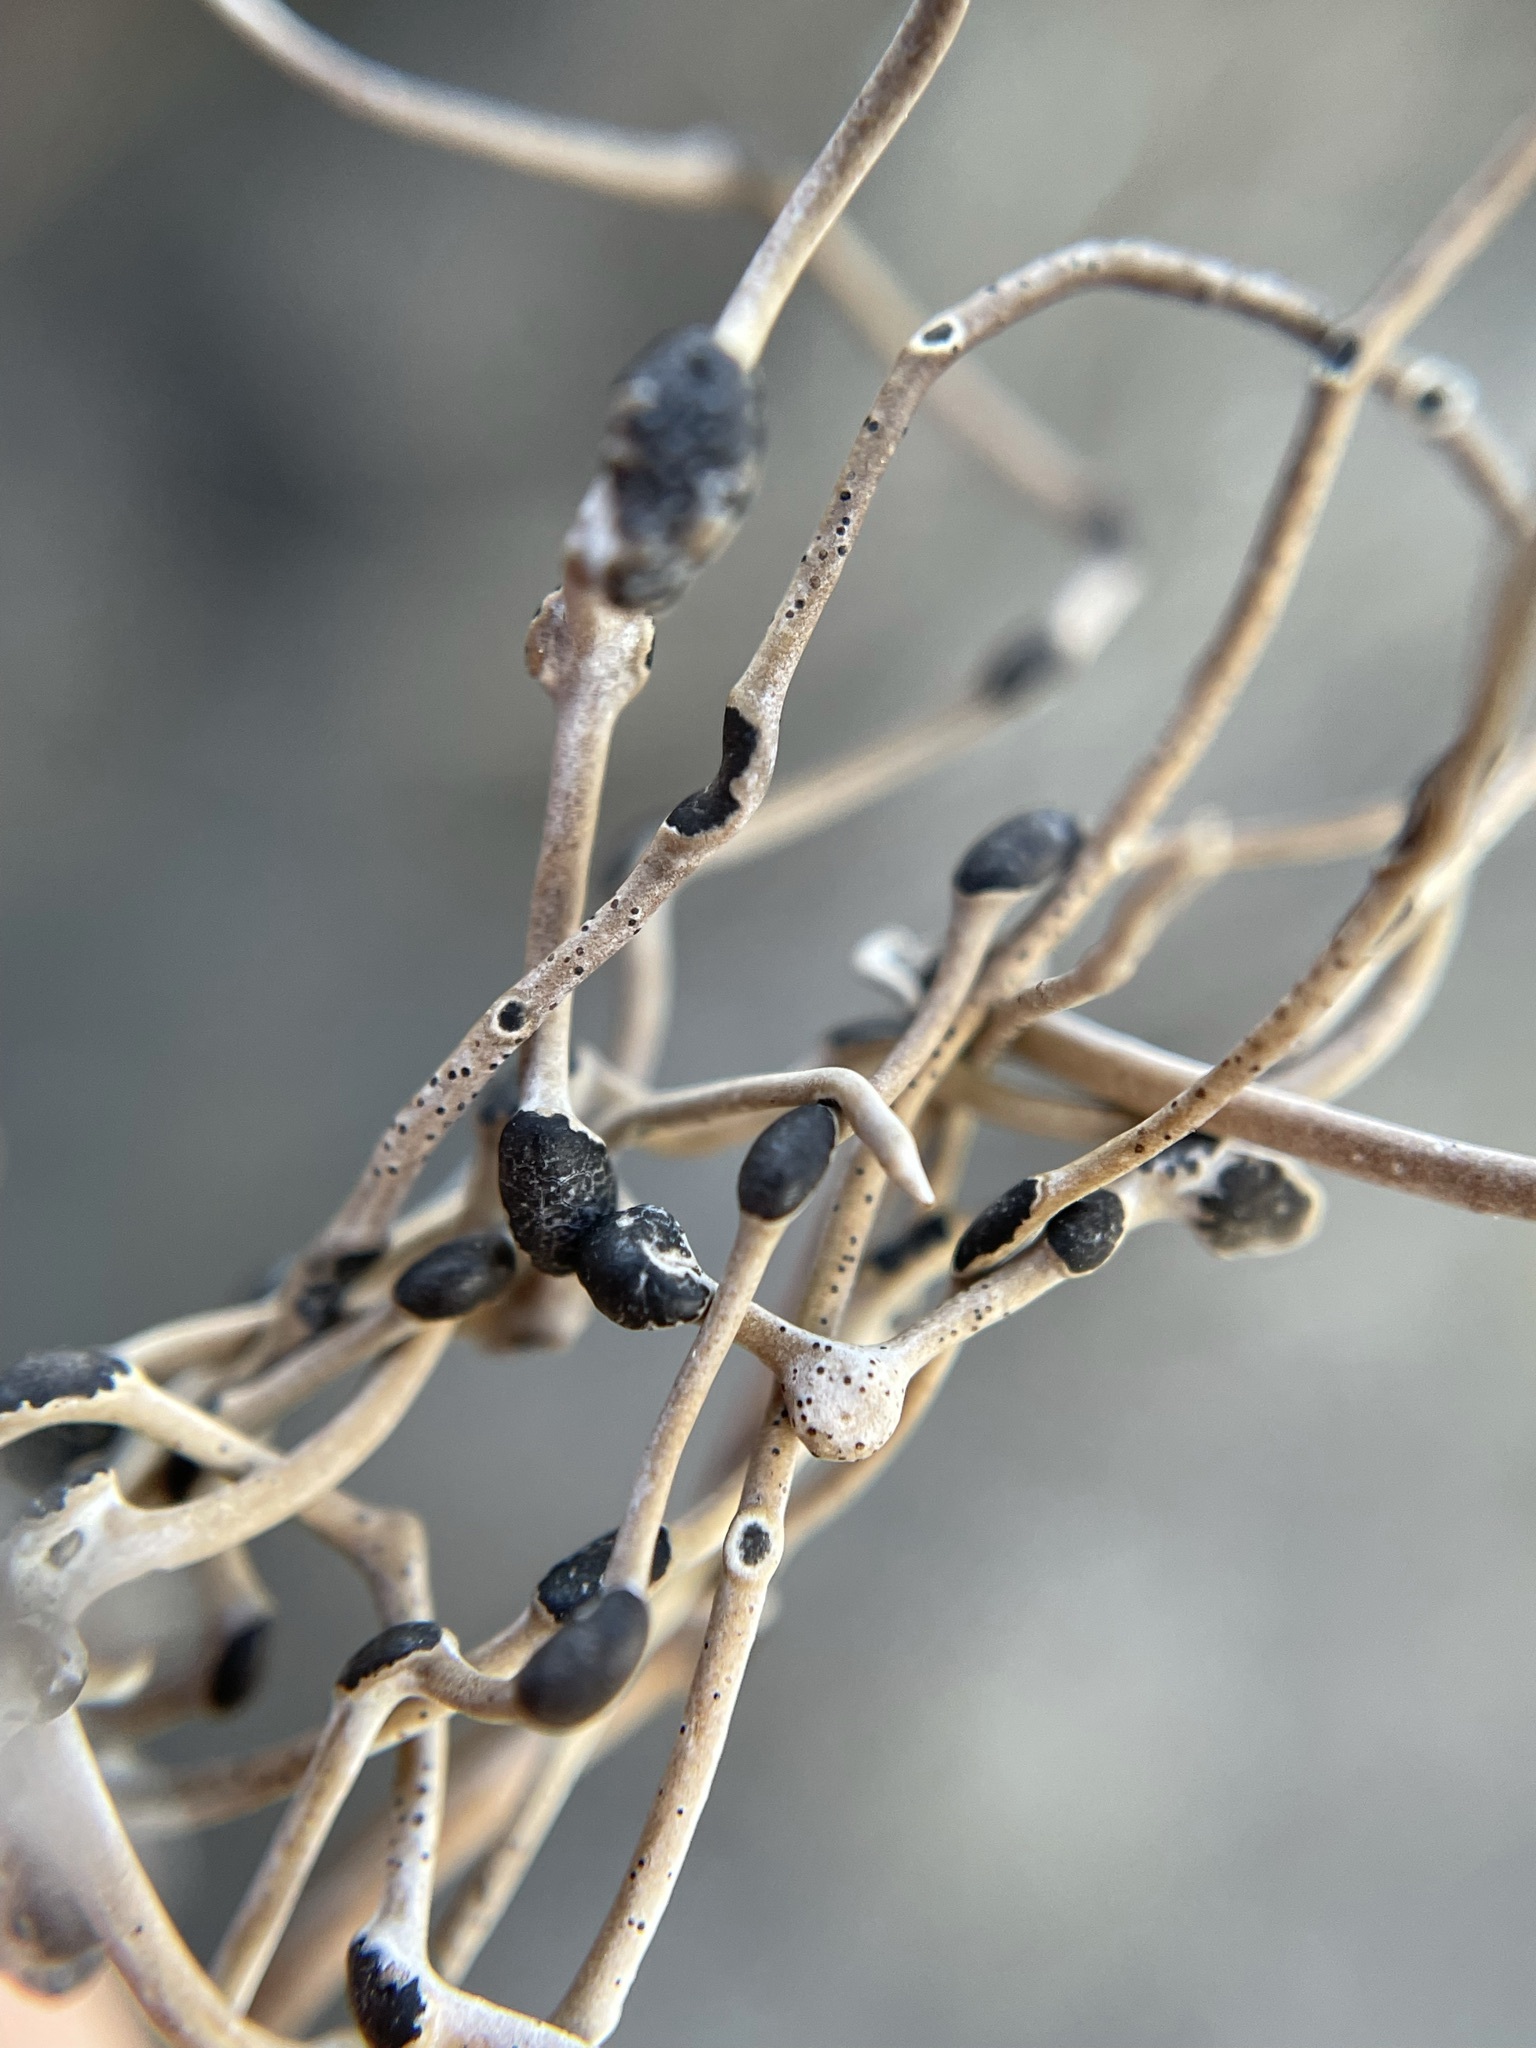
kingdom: Fungi
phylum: Ascomycota
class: Arthoniomycetes
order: Arthoniales
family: Roccellaceae
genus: Roccellina
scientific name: Roccellina hypomecha
